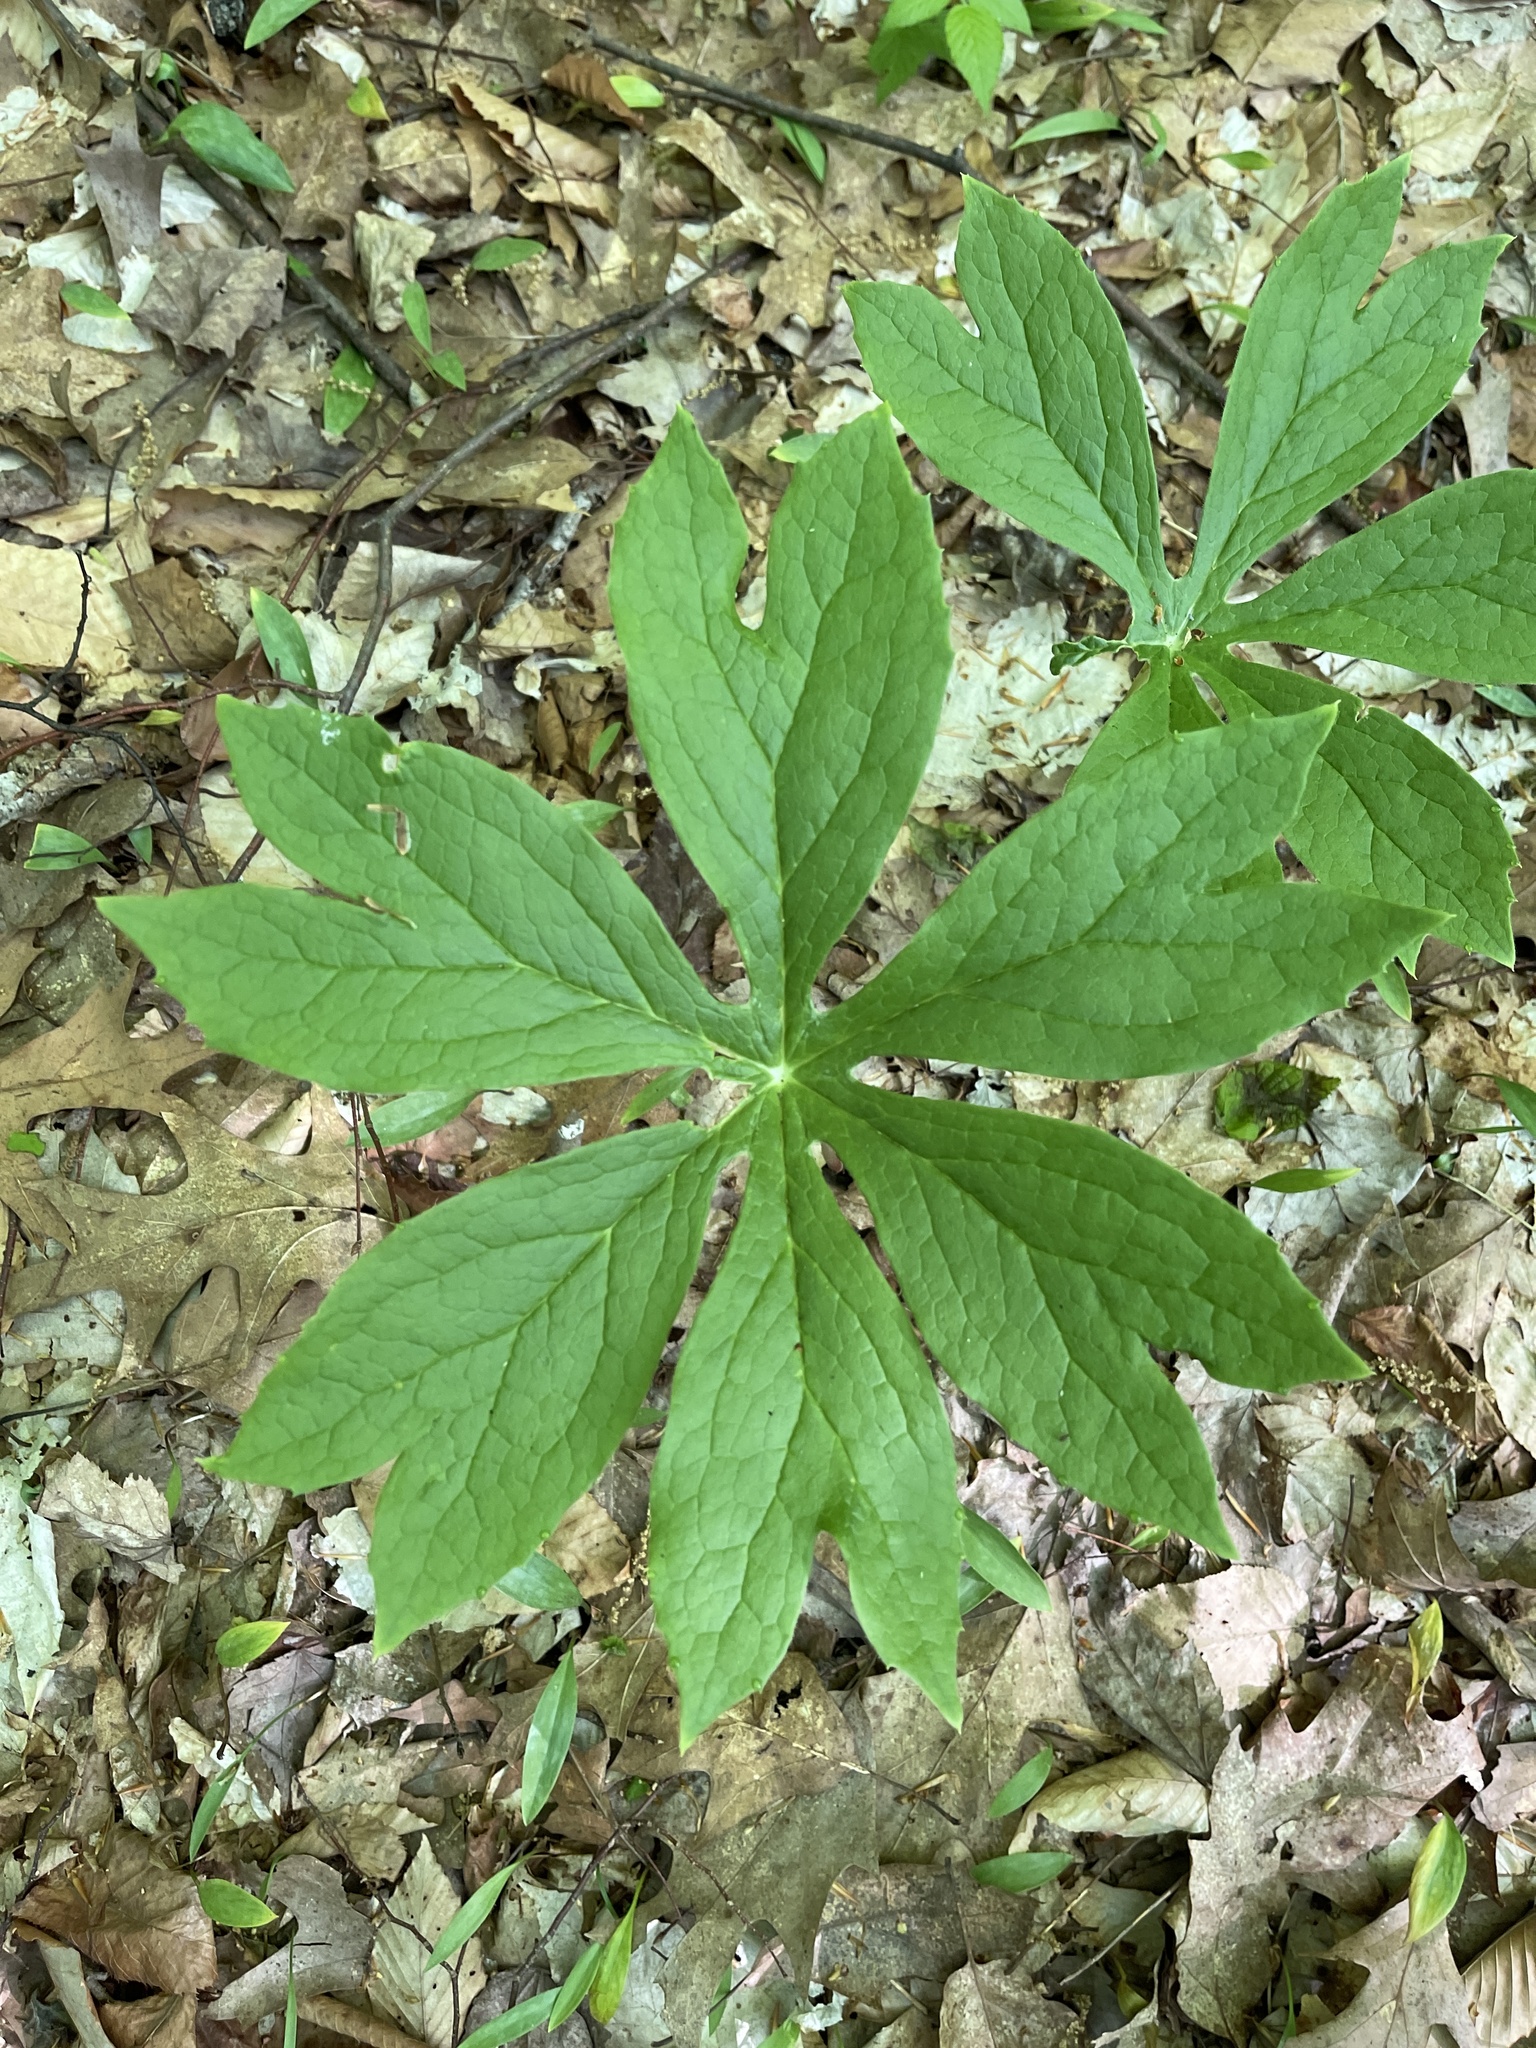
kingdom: Plantae
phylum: Tracheophyta
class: Magnoliopsida
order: Ranunculales
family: Berberidaceae
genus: Podophyllum
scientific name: Podophyllum peltatum
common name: Wild mandrake
